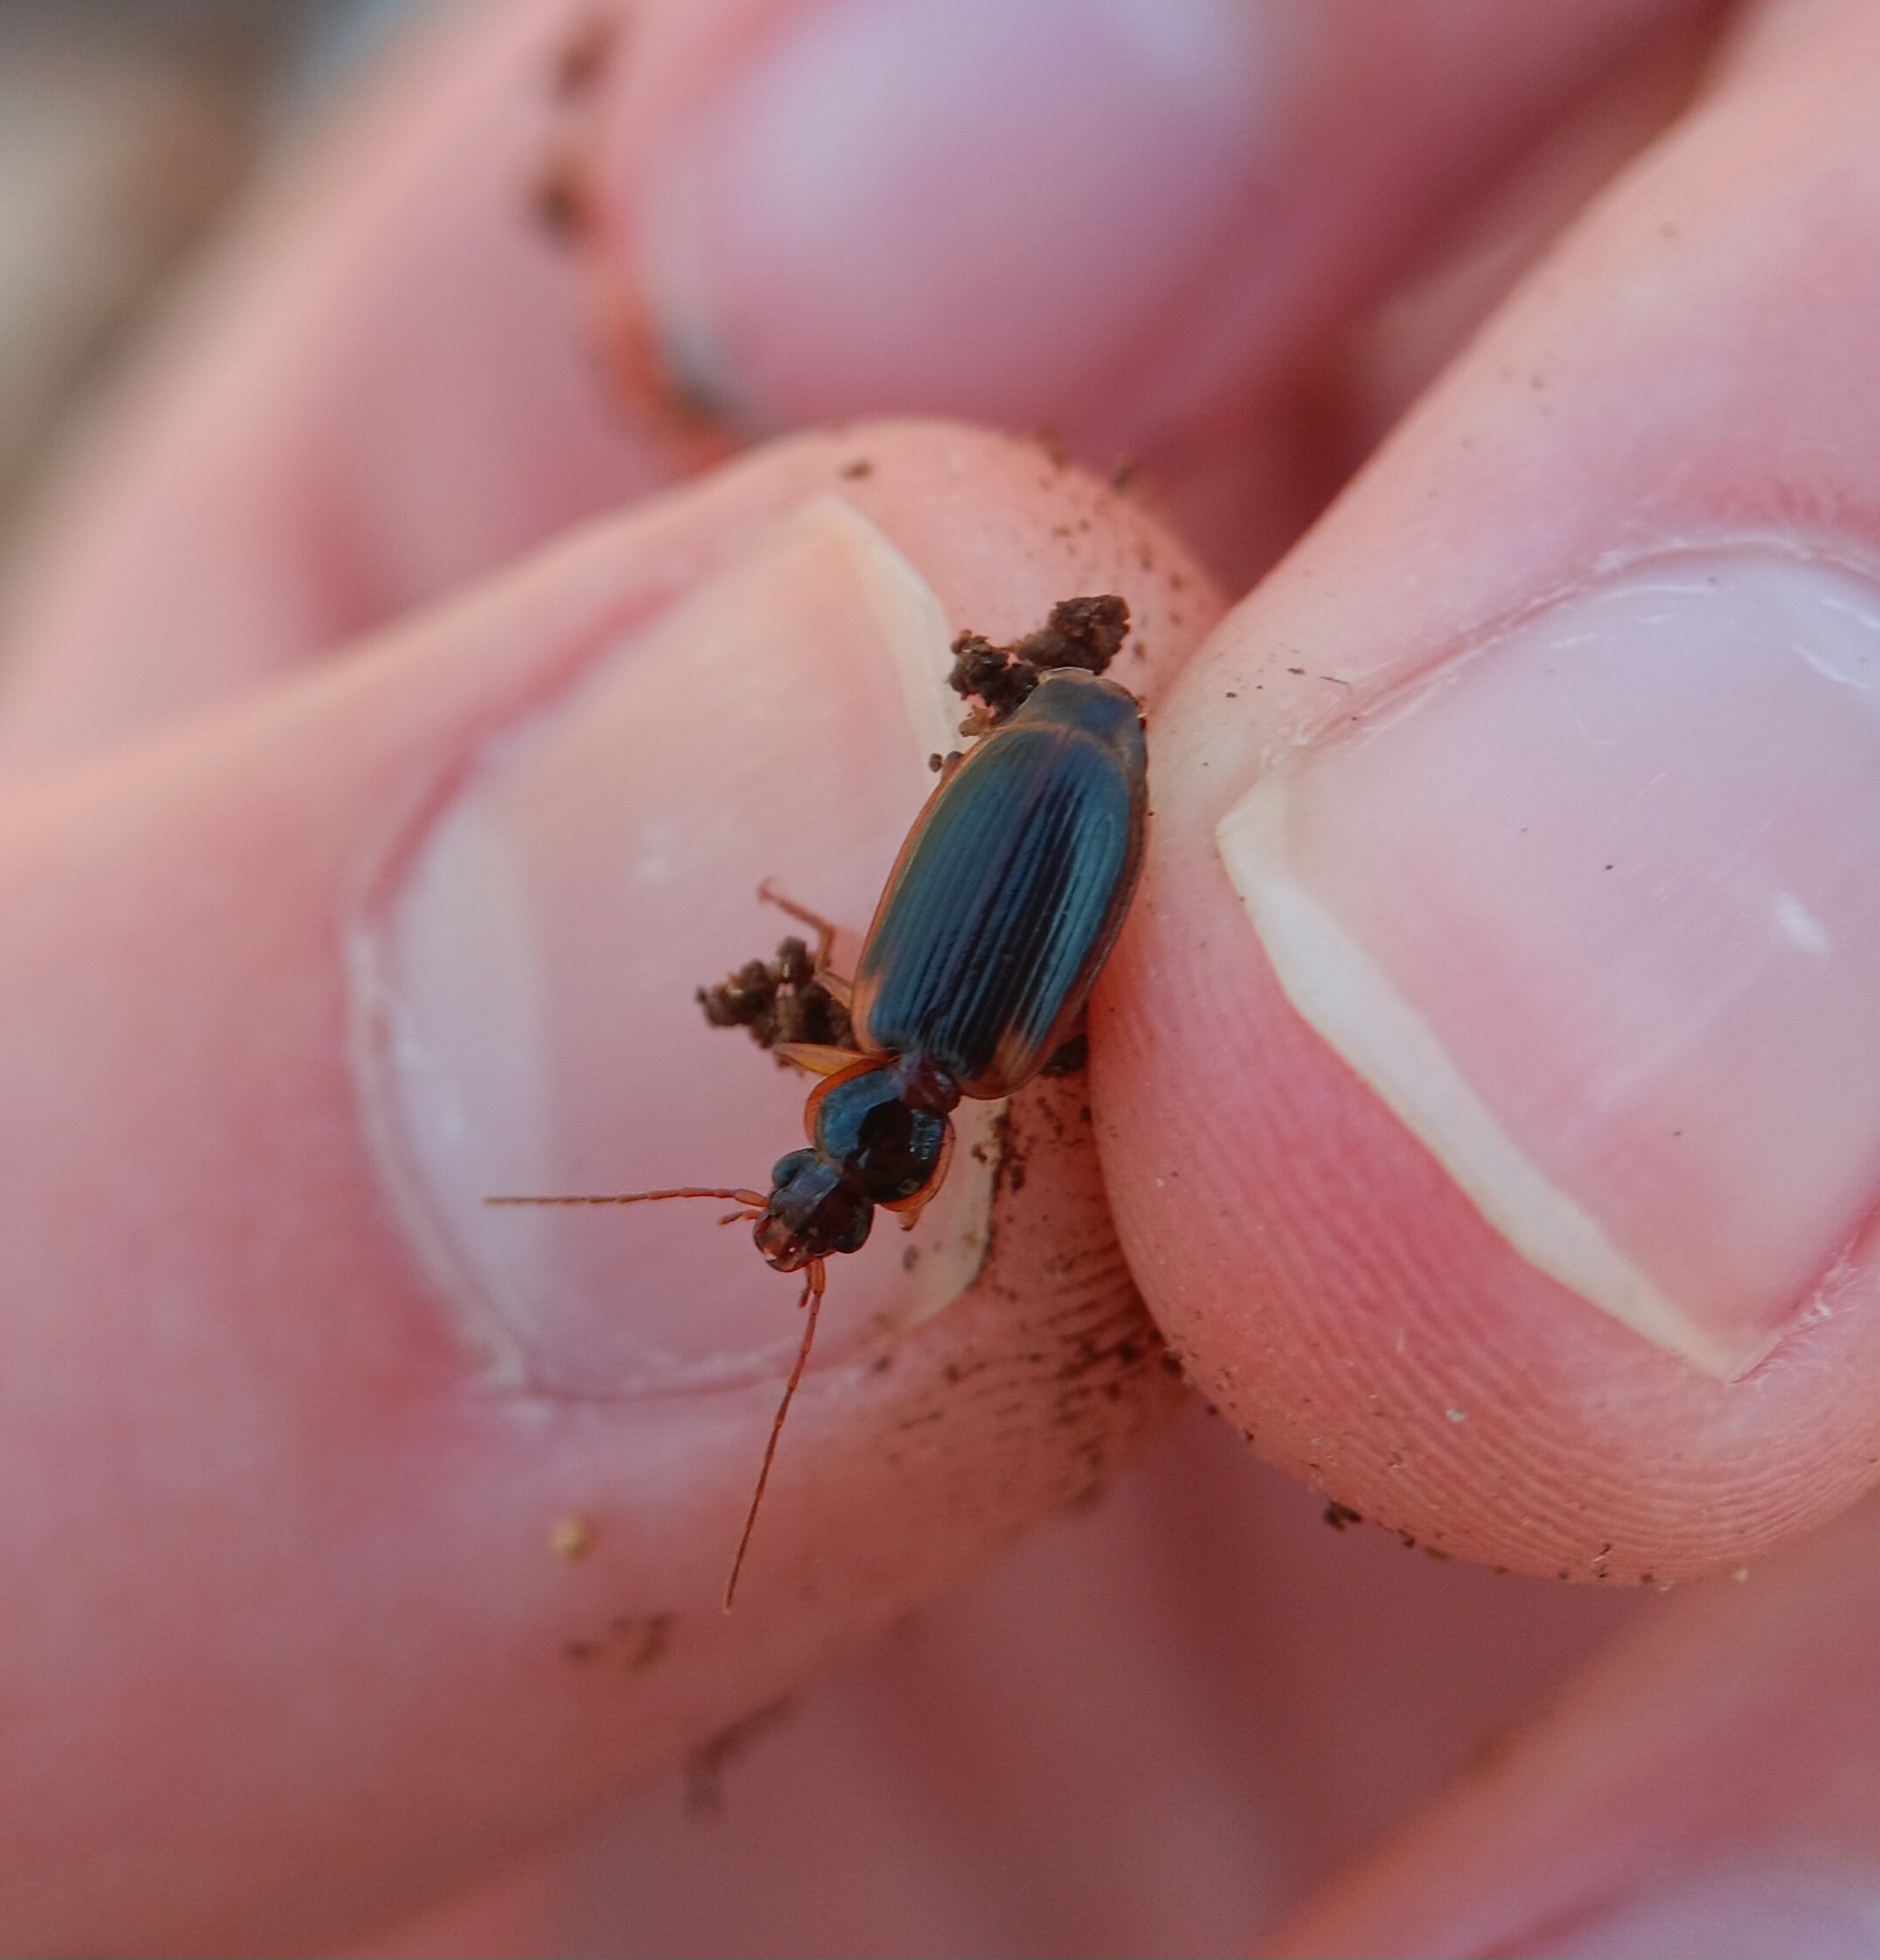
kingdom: Animalia
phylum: Arthropoda
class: Insecta
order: Coleoptera
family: Carabidae
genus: Pinacodera
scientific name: Pinacodera limbata
